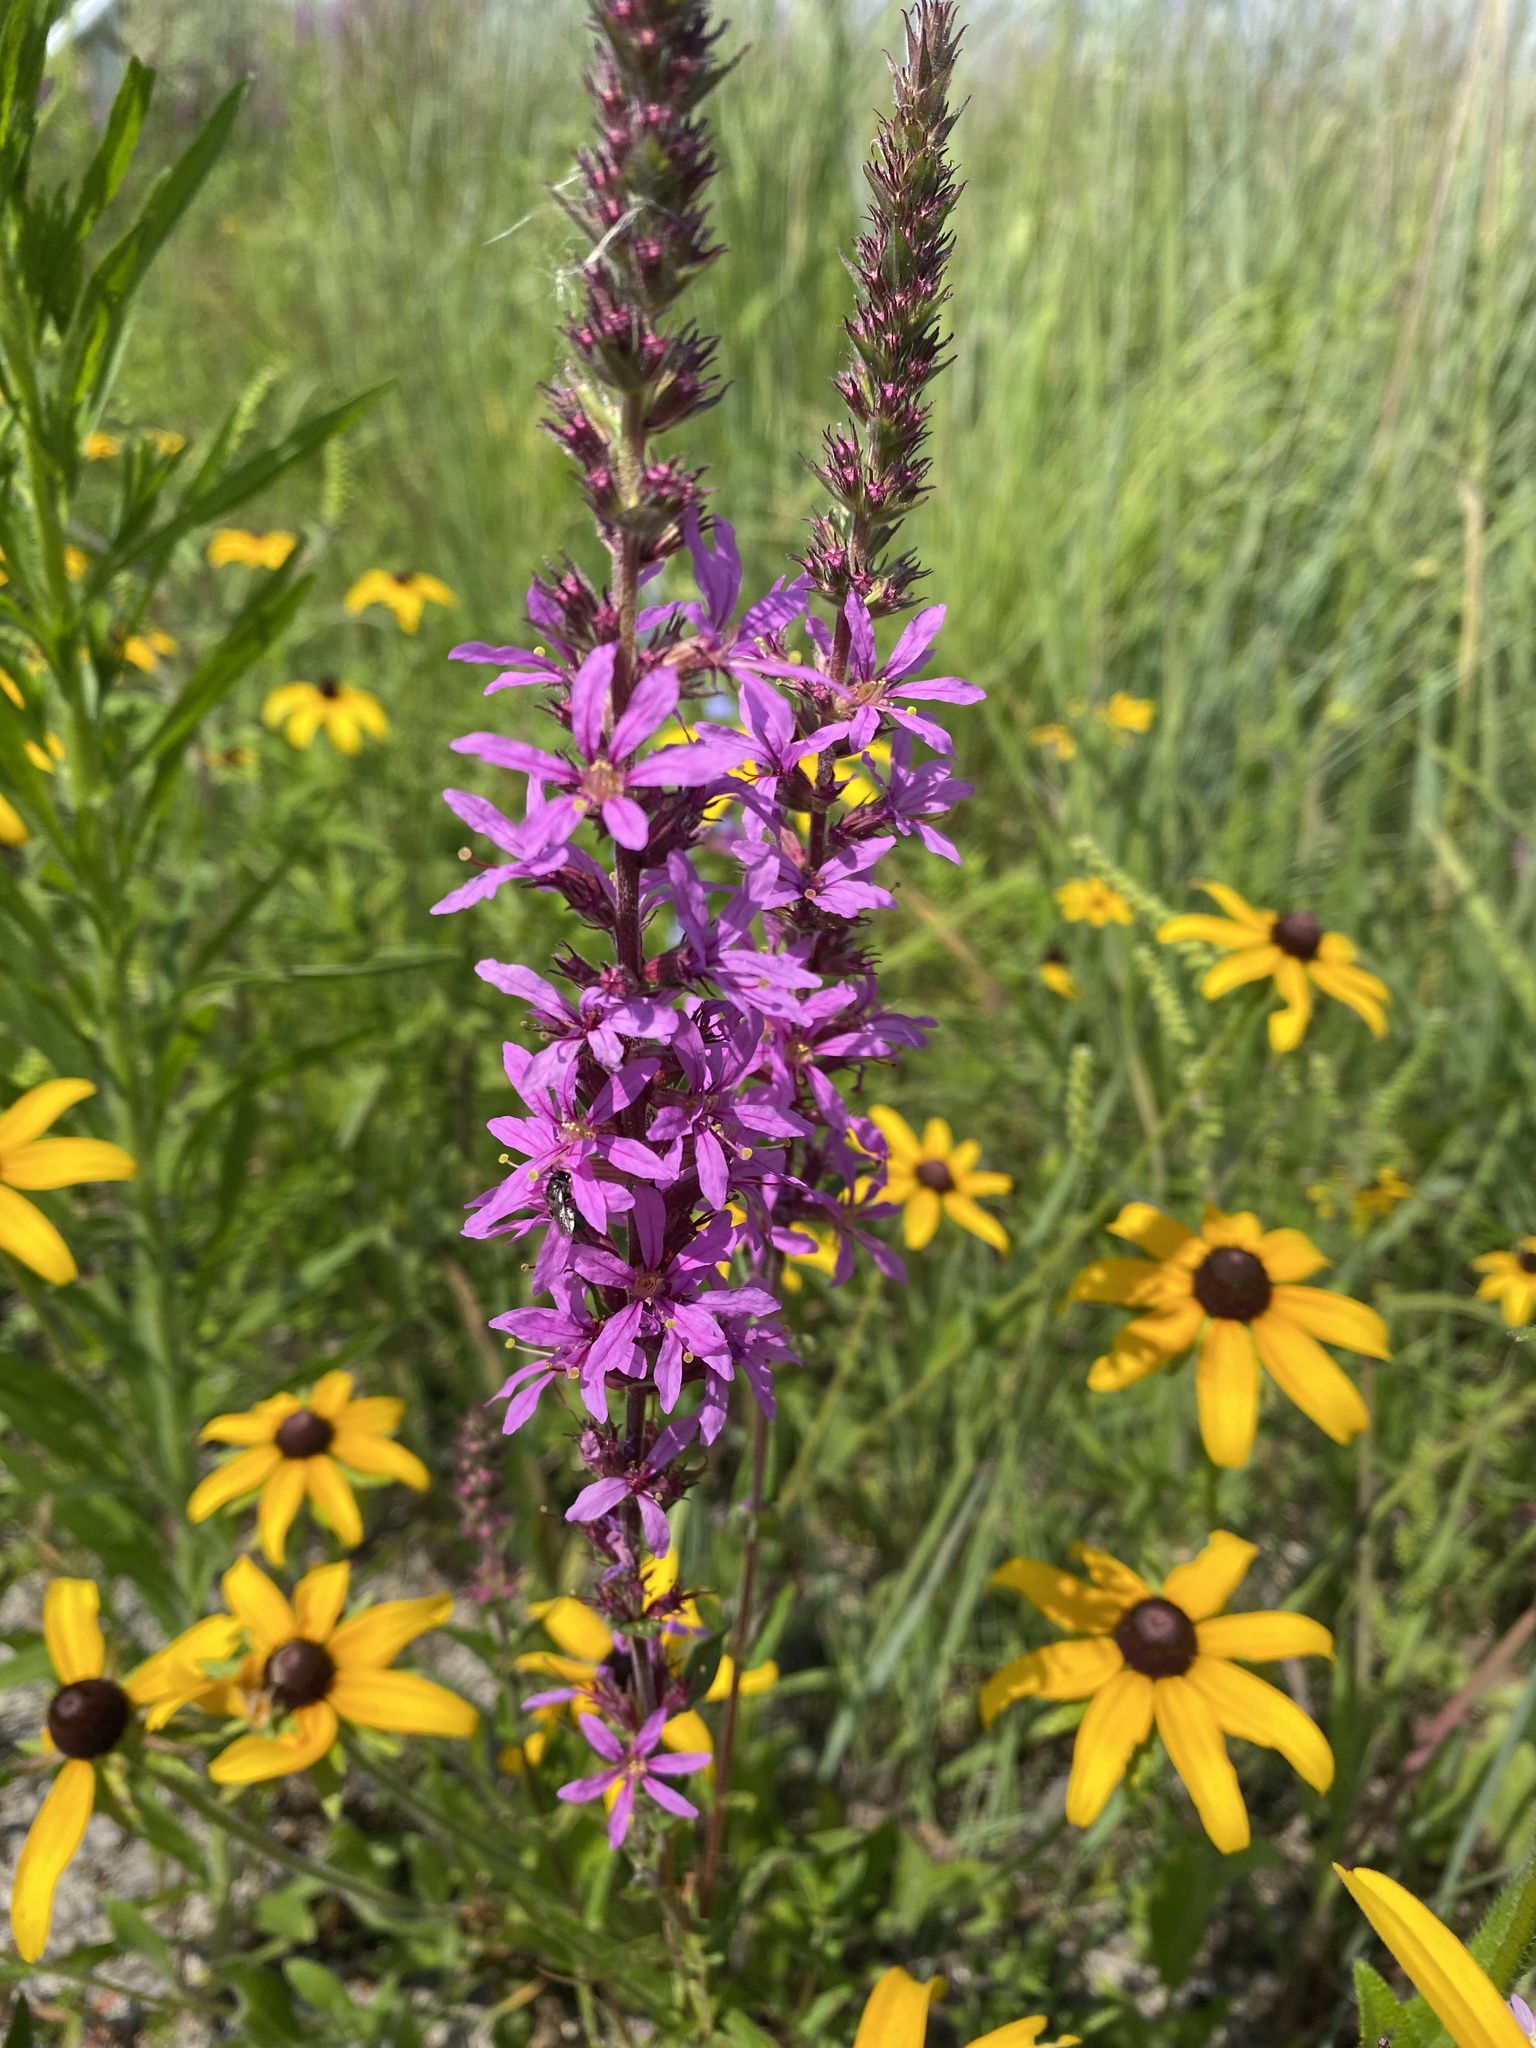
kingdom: Plantae
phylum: Tracheophyta
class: Magnoliopsida
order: Myrtales
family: Lythraceae
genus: Lythrum
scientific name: Lythrum salicaria
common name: Purple loosestrife
